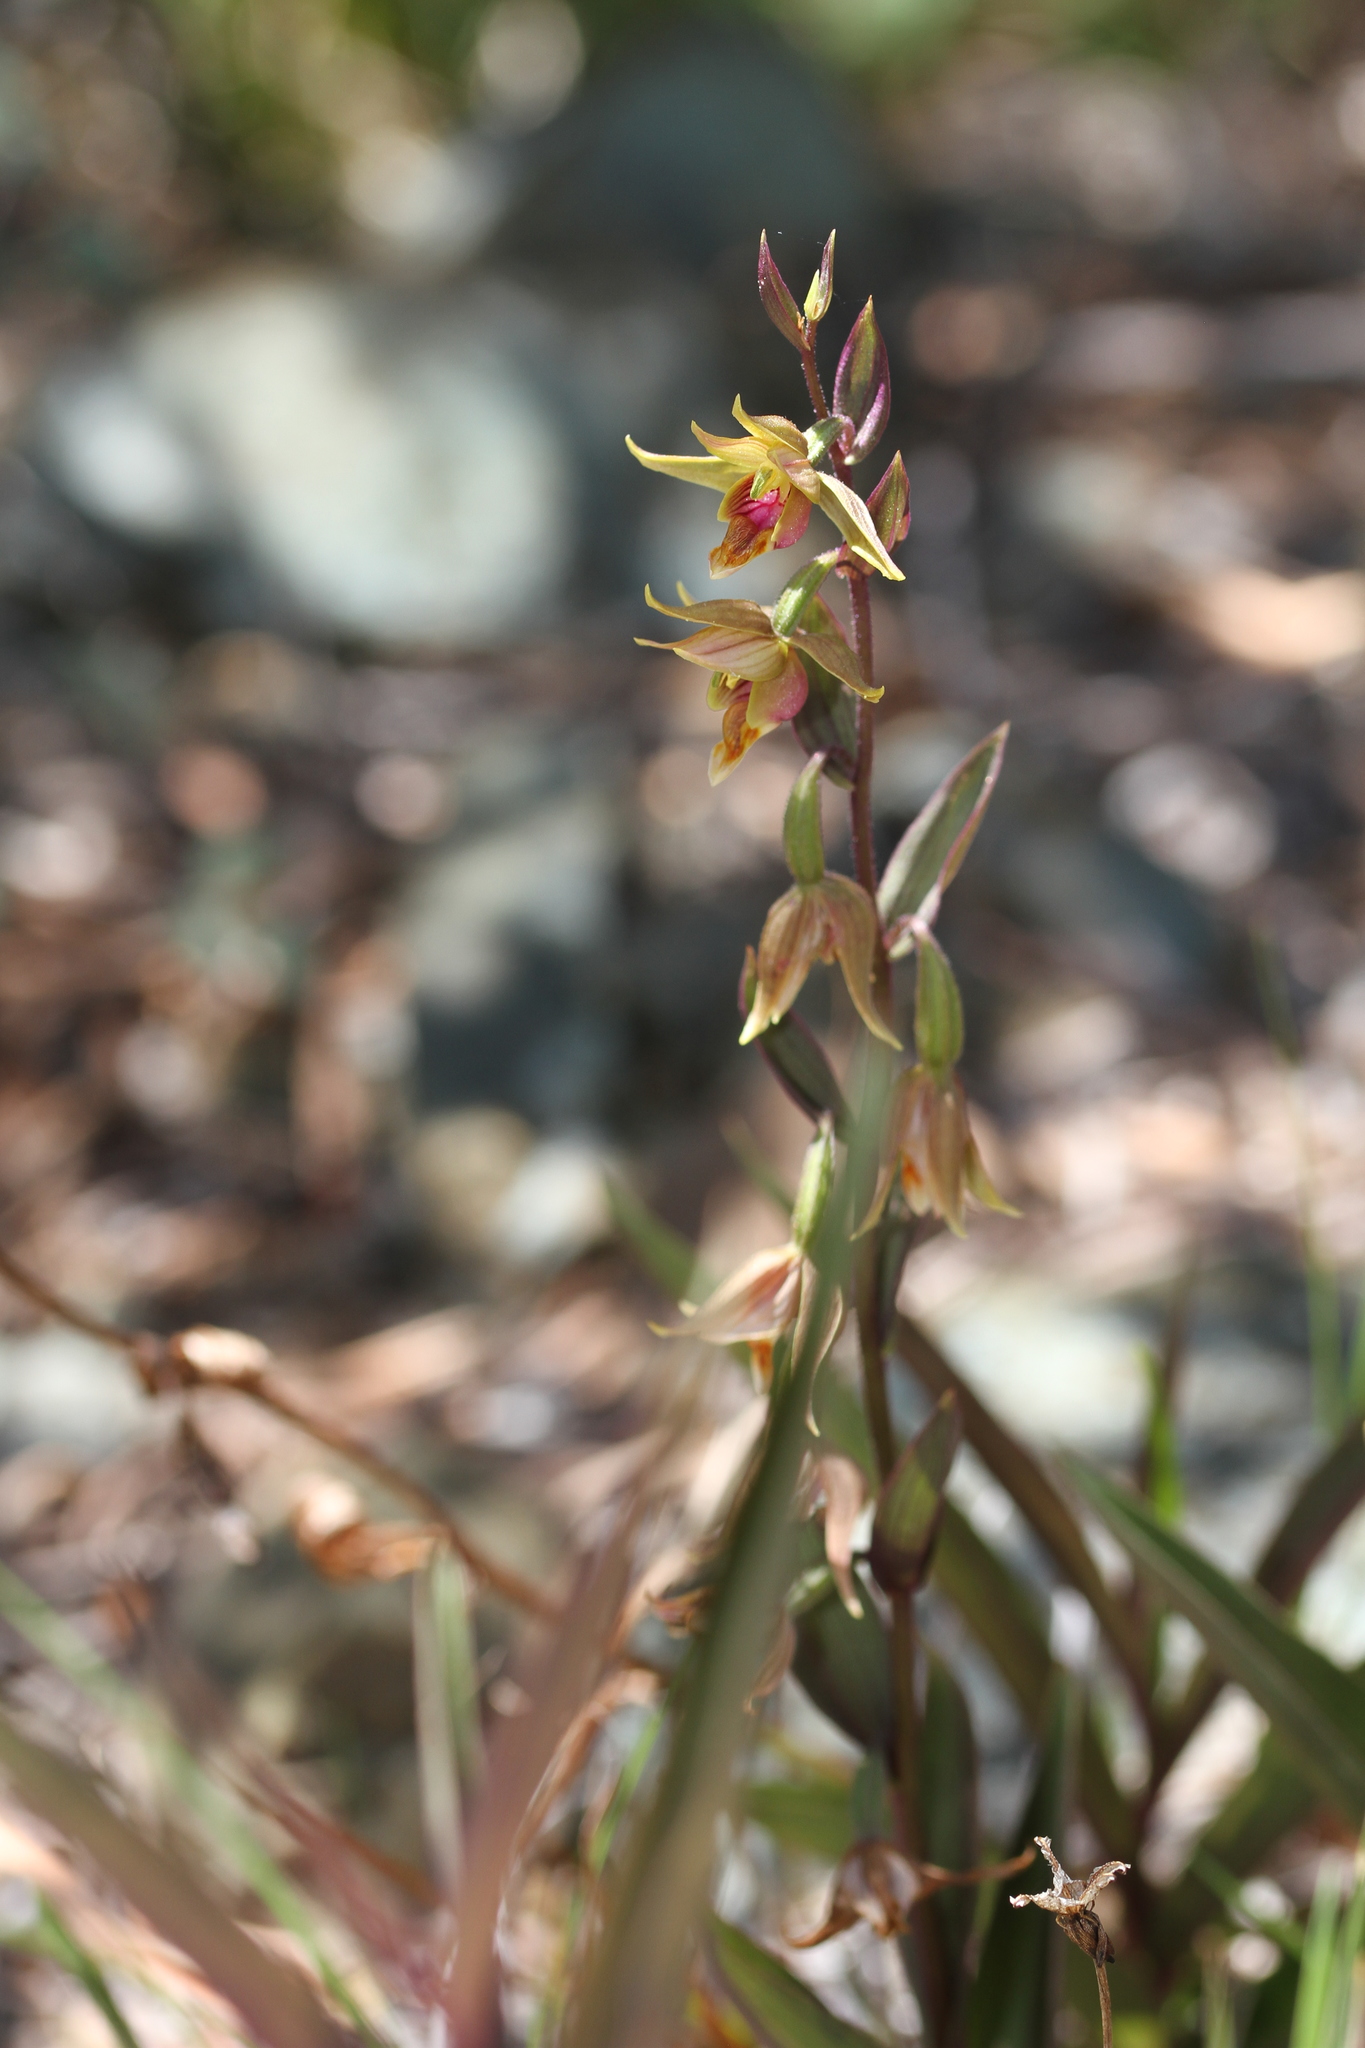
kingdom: Plantae
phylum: Tracheophyta
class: Liliopsida
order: Asparagales
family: Orchidaceae
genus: Epipactis
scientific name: Epipactis gigantea
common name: Chatterbox
